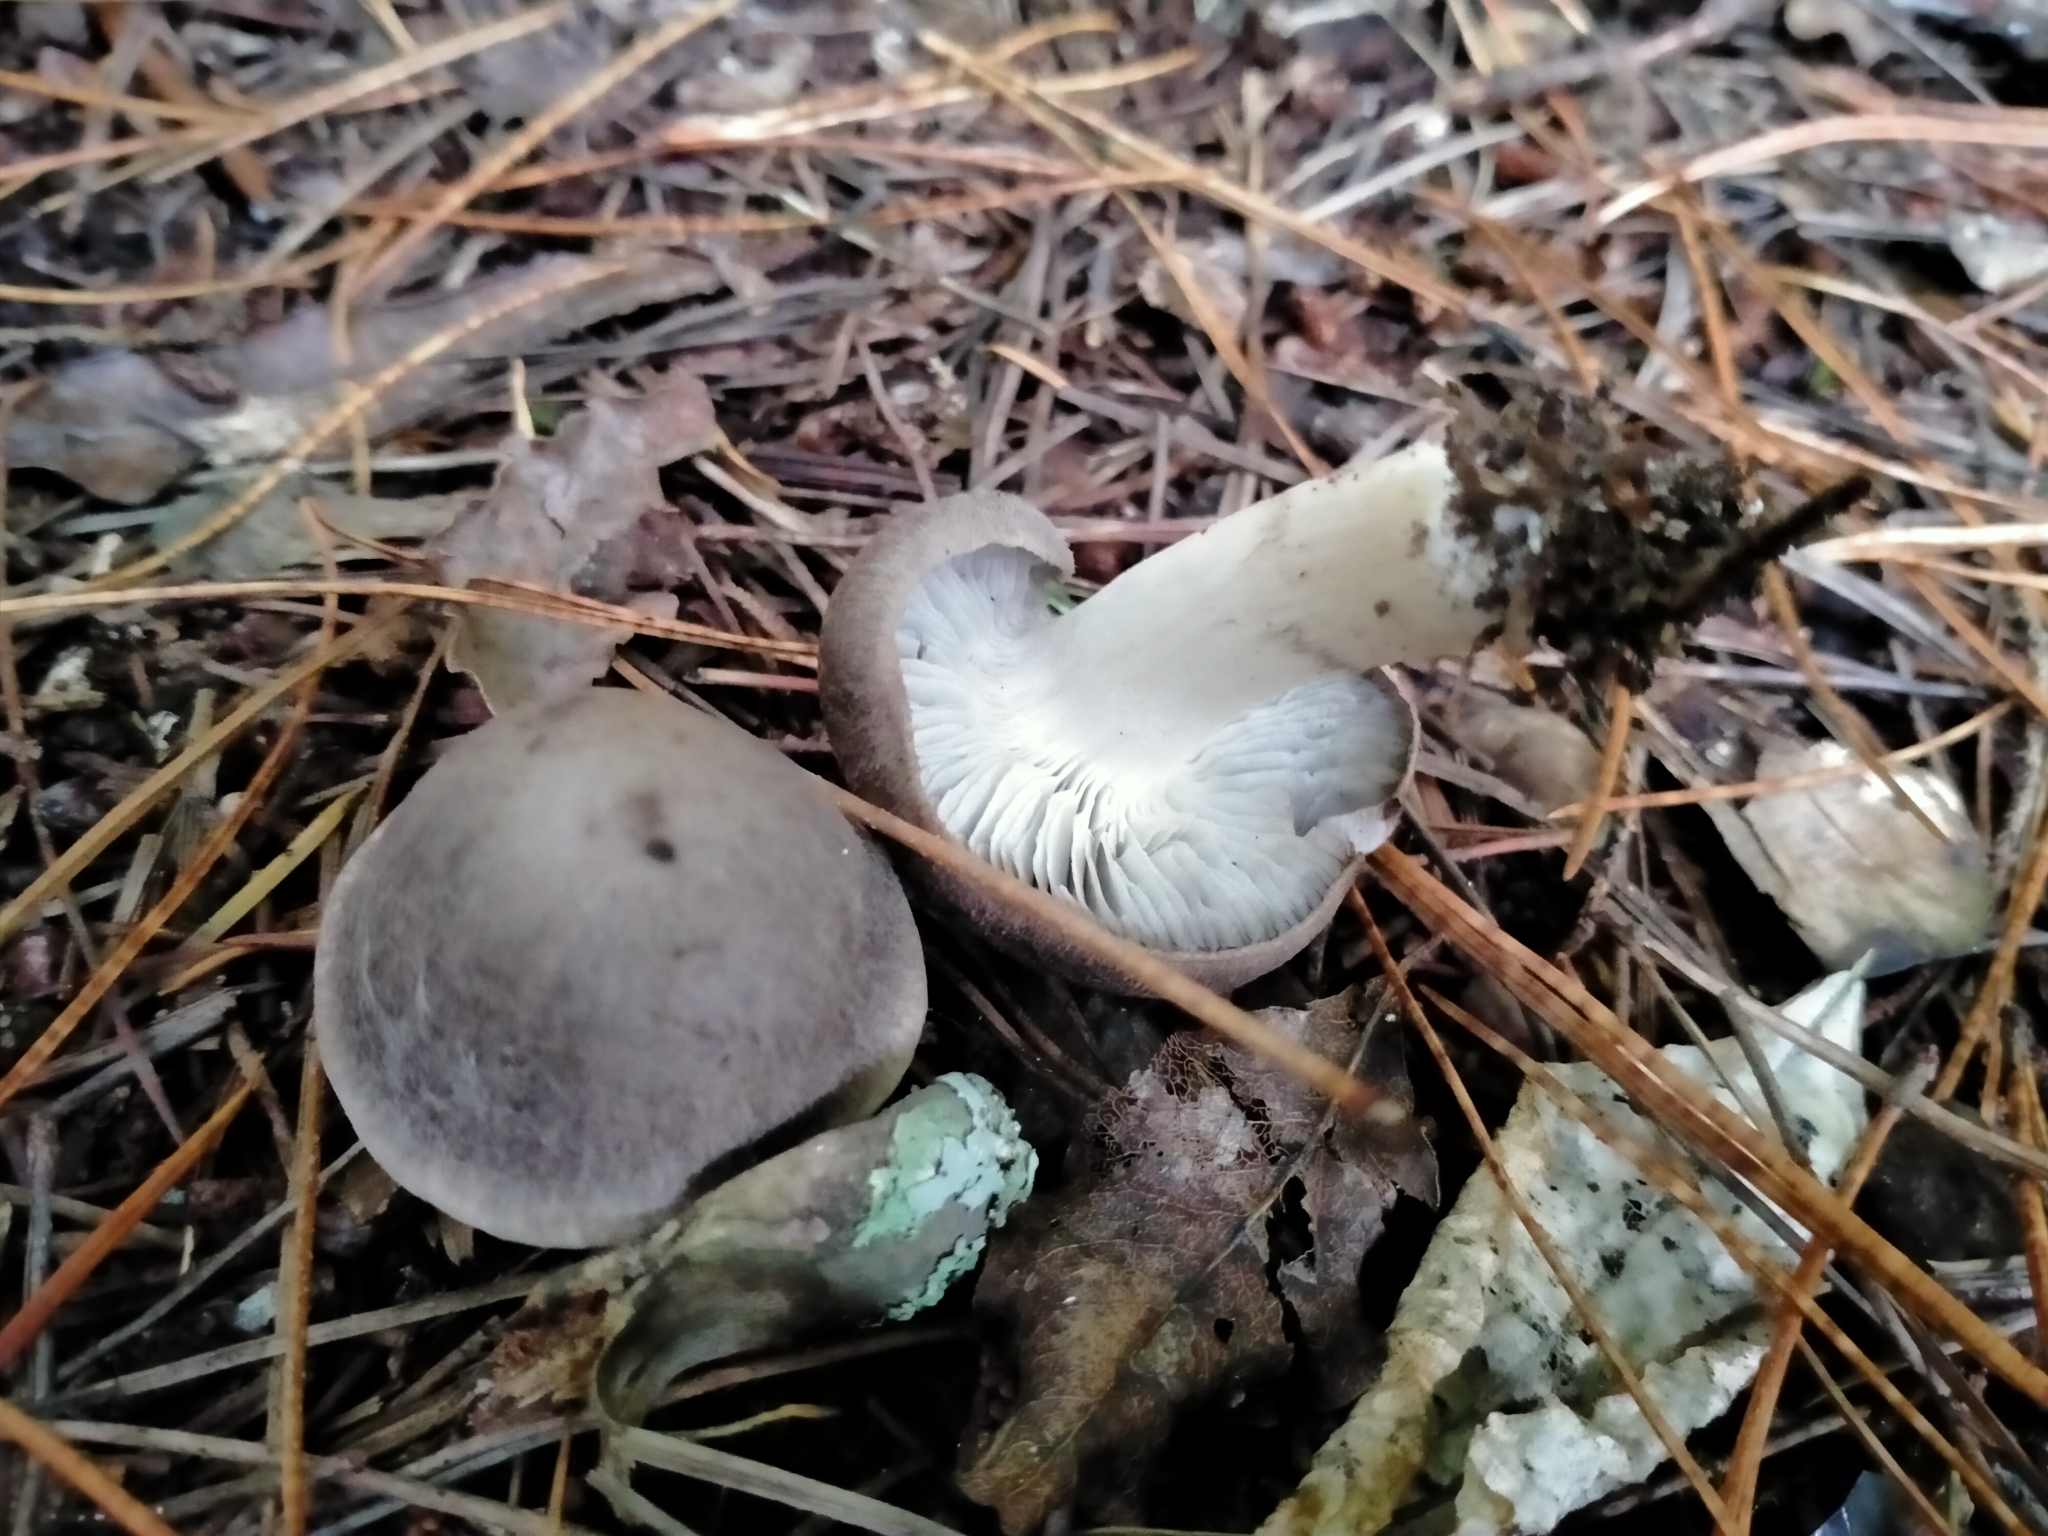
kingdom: Fungi
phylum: Basidiomycota
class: Agaricomycetes
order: Agaricales
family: Tricholomataceae
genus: Tricholoma
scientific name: Tricholoma terreum
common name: Grey knight
